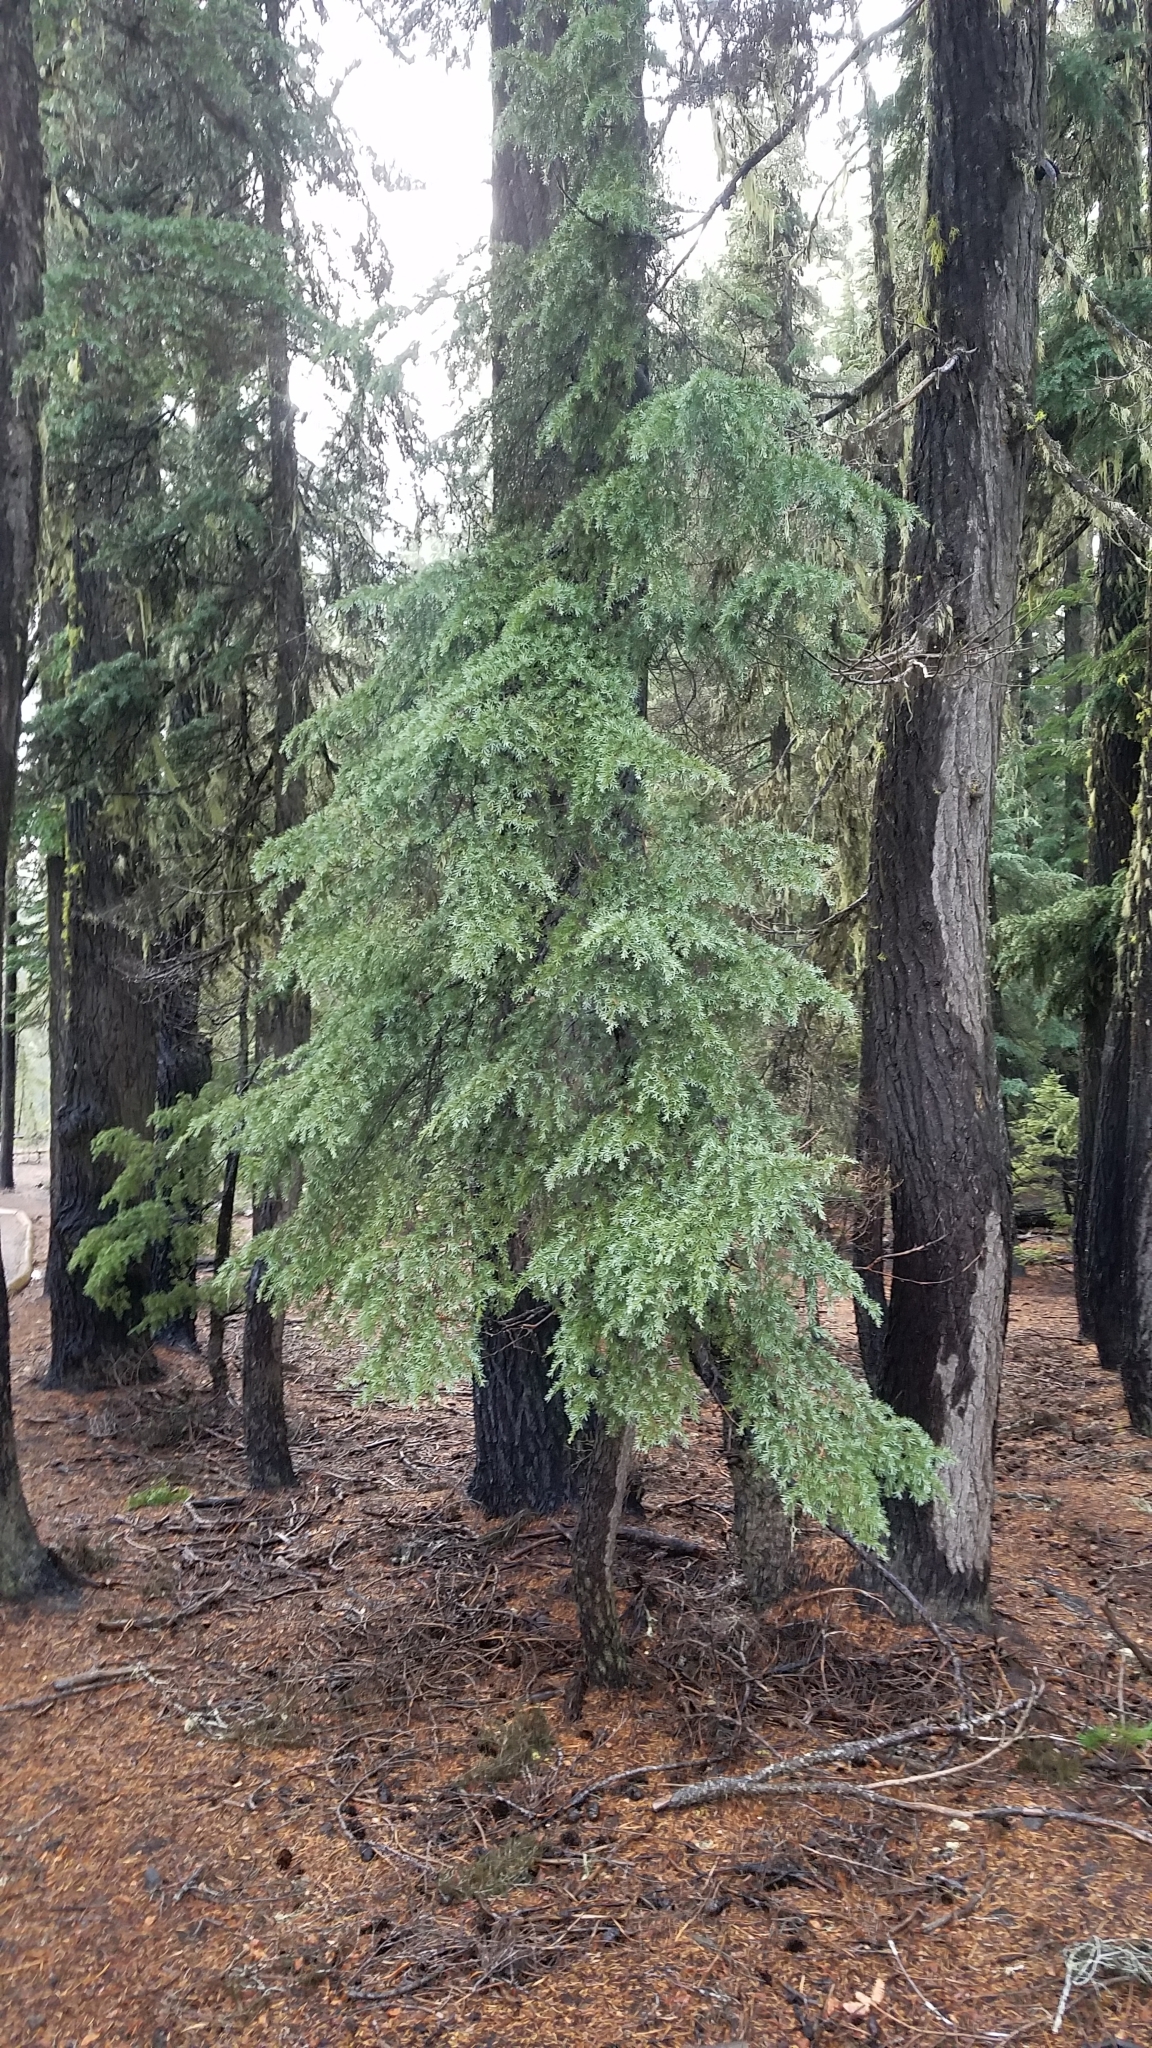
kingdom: Plantae
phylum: Tracheophyta
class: Pinopsida
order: Pinales
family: Pinaceae
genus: Tsuga
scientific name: Tsuga mertensiana
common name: Mountain hemlock
